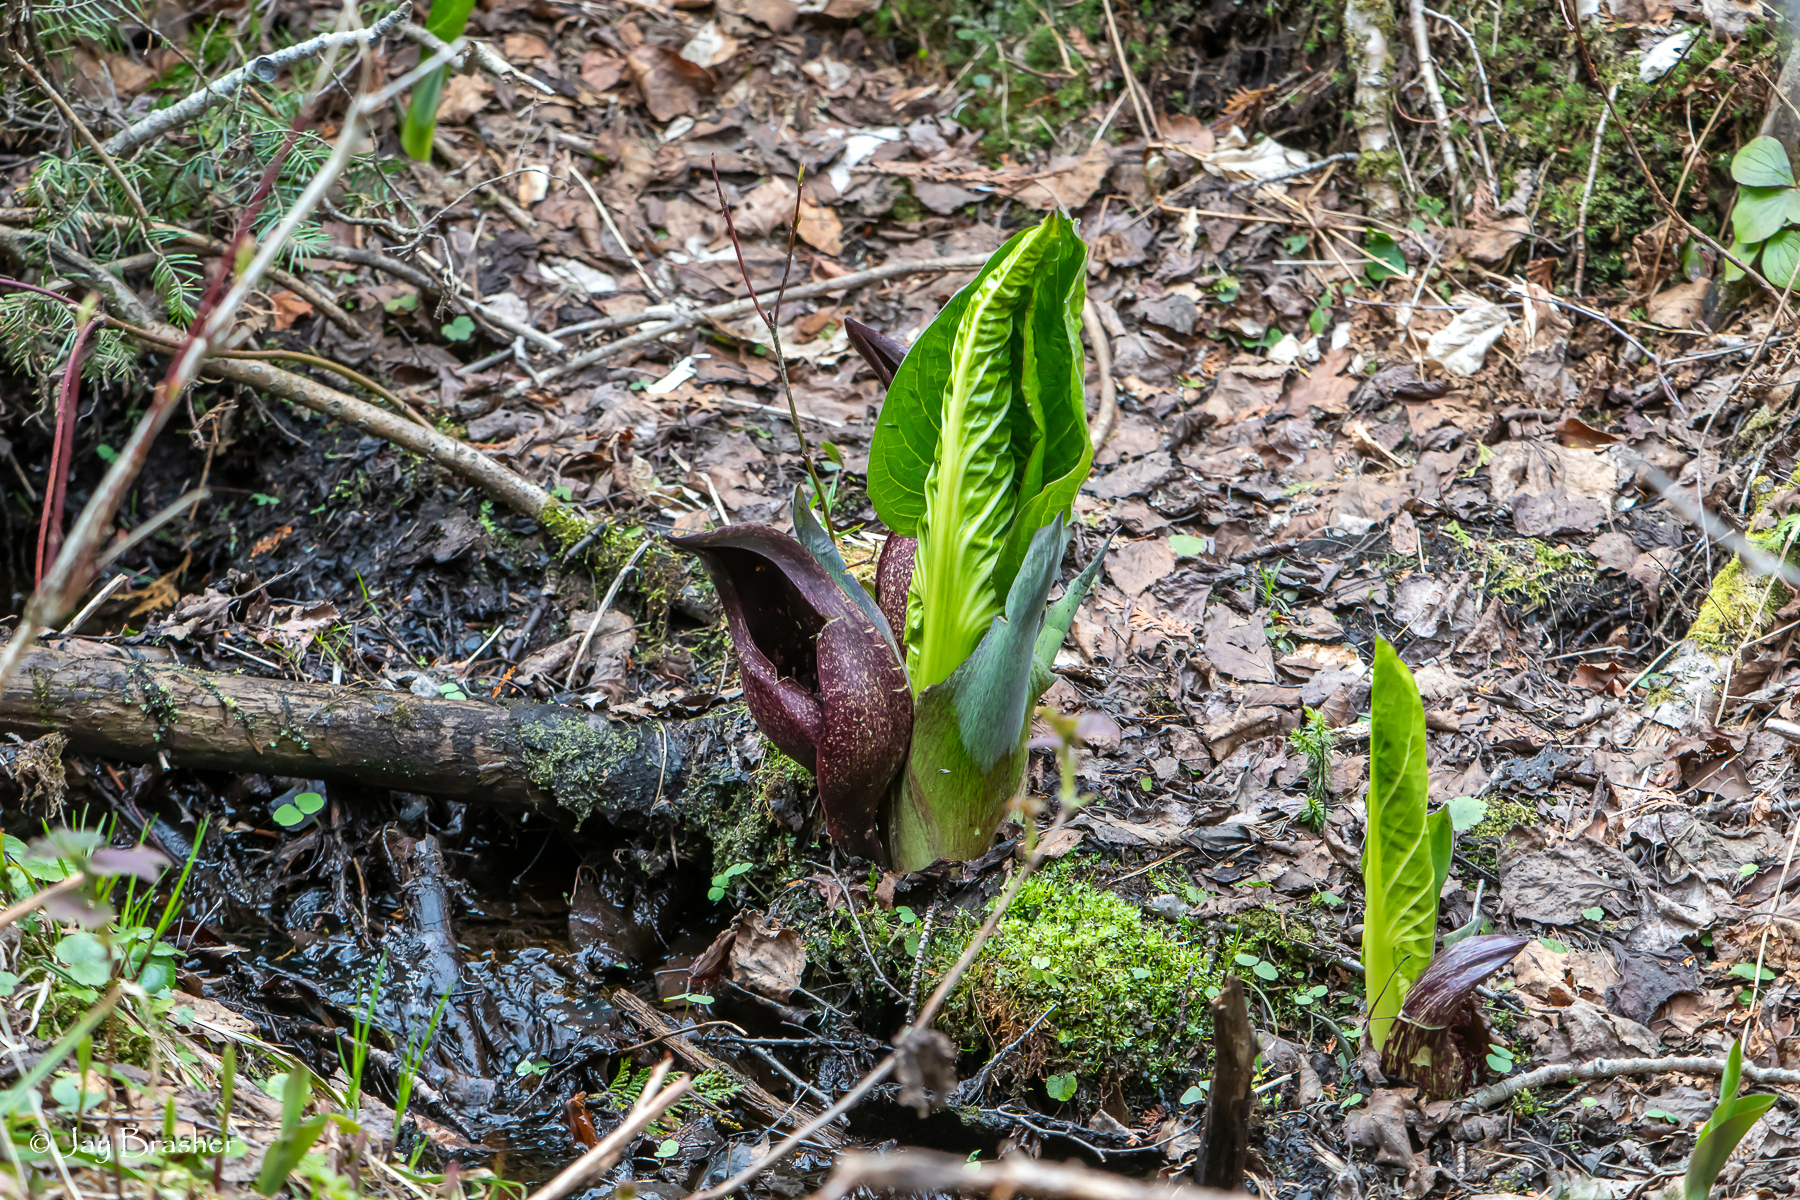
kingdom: Plantae
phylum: Tracheophyta
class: Liliopsida
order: Alismatales
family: Araceae
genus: Symplocarpus
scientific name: Symplocarpus foetidus
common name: Eastern skunk cabbage
